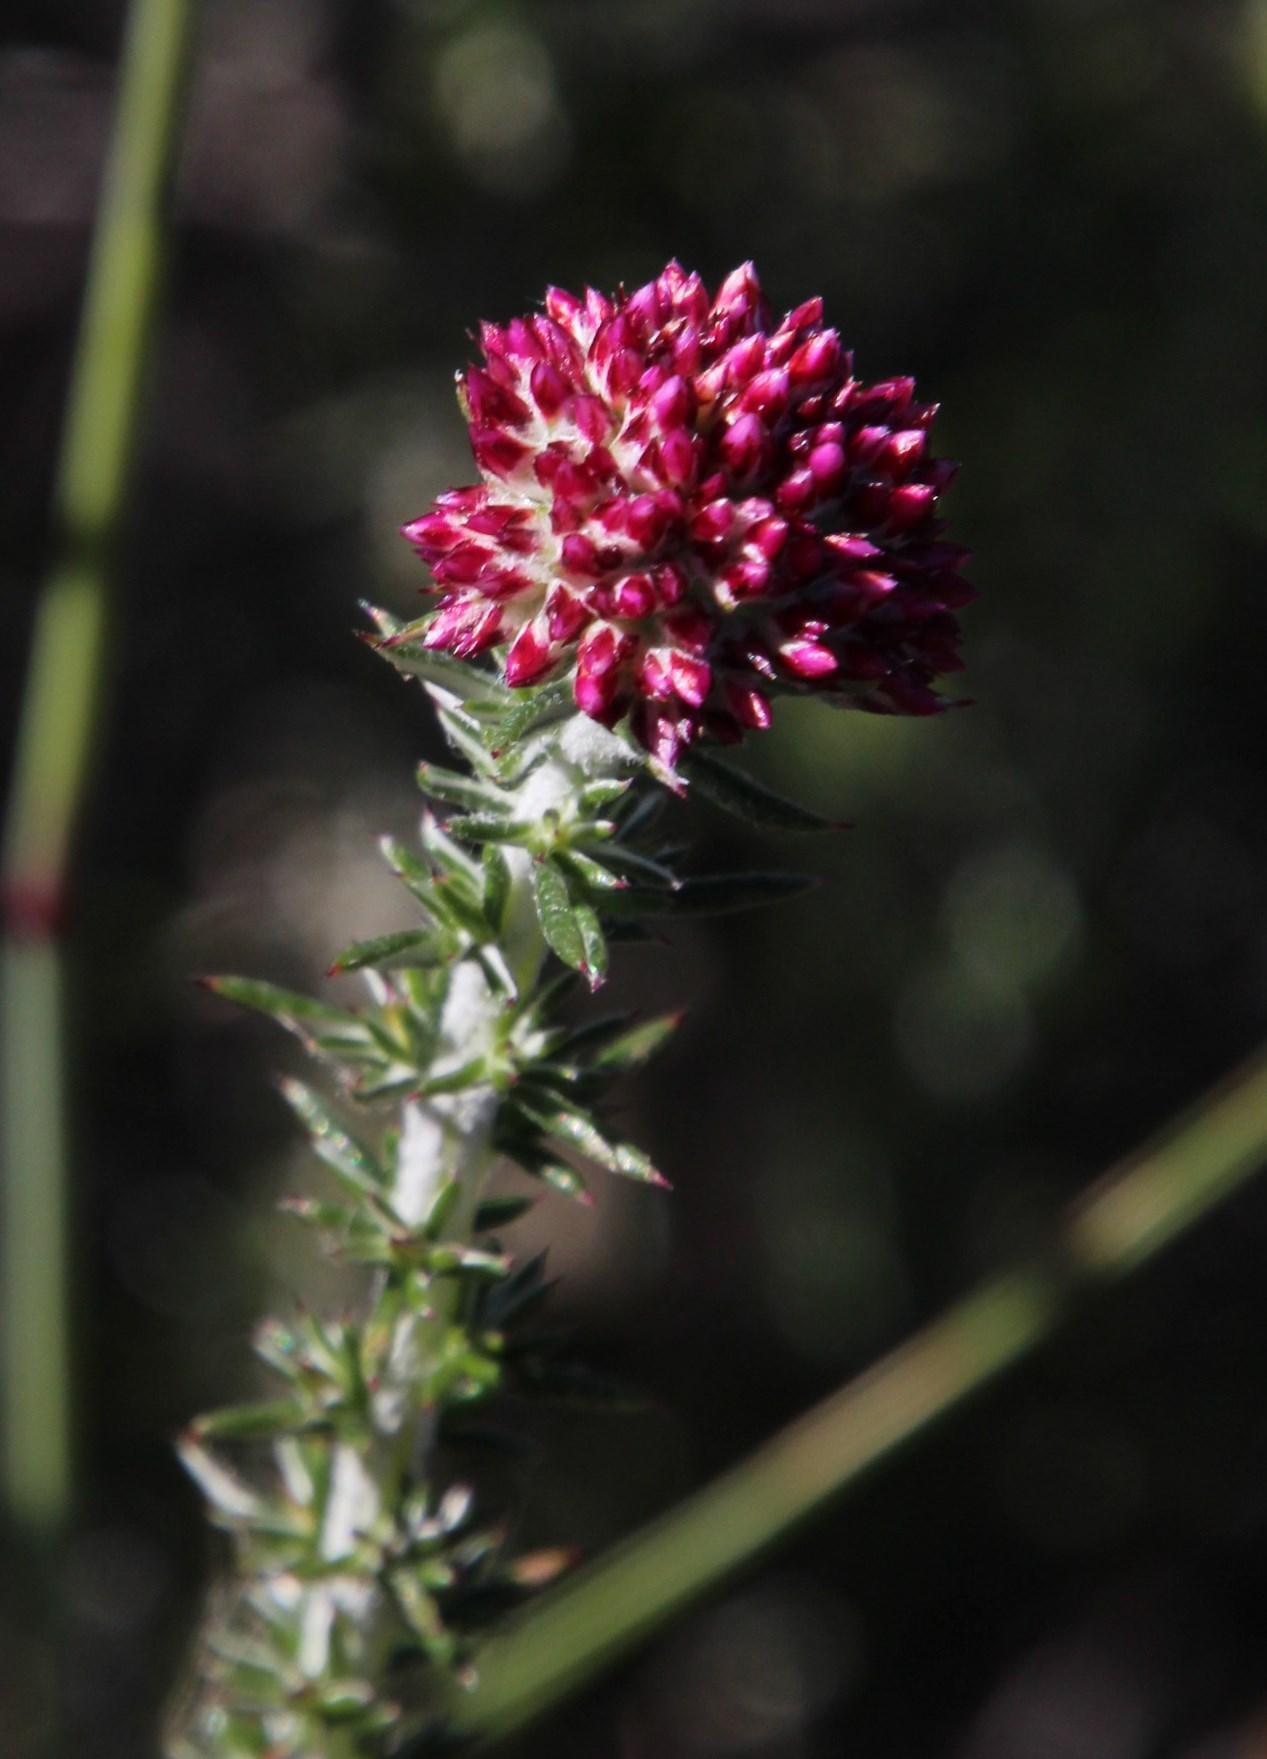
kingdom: Plantae
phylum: Tracheophyta
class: Magnoliopsida
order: Asterales
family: Asteraceae
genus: Metalasia
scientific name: Metalasia fastigiata
